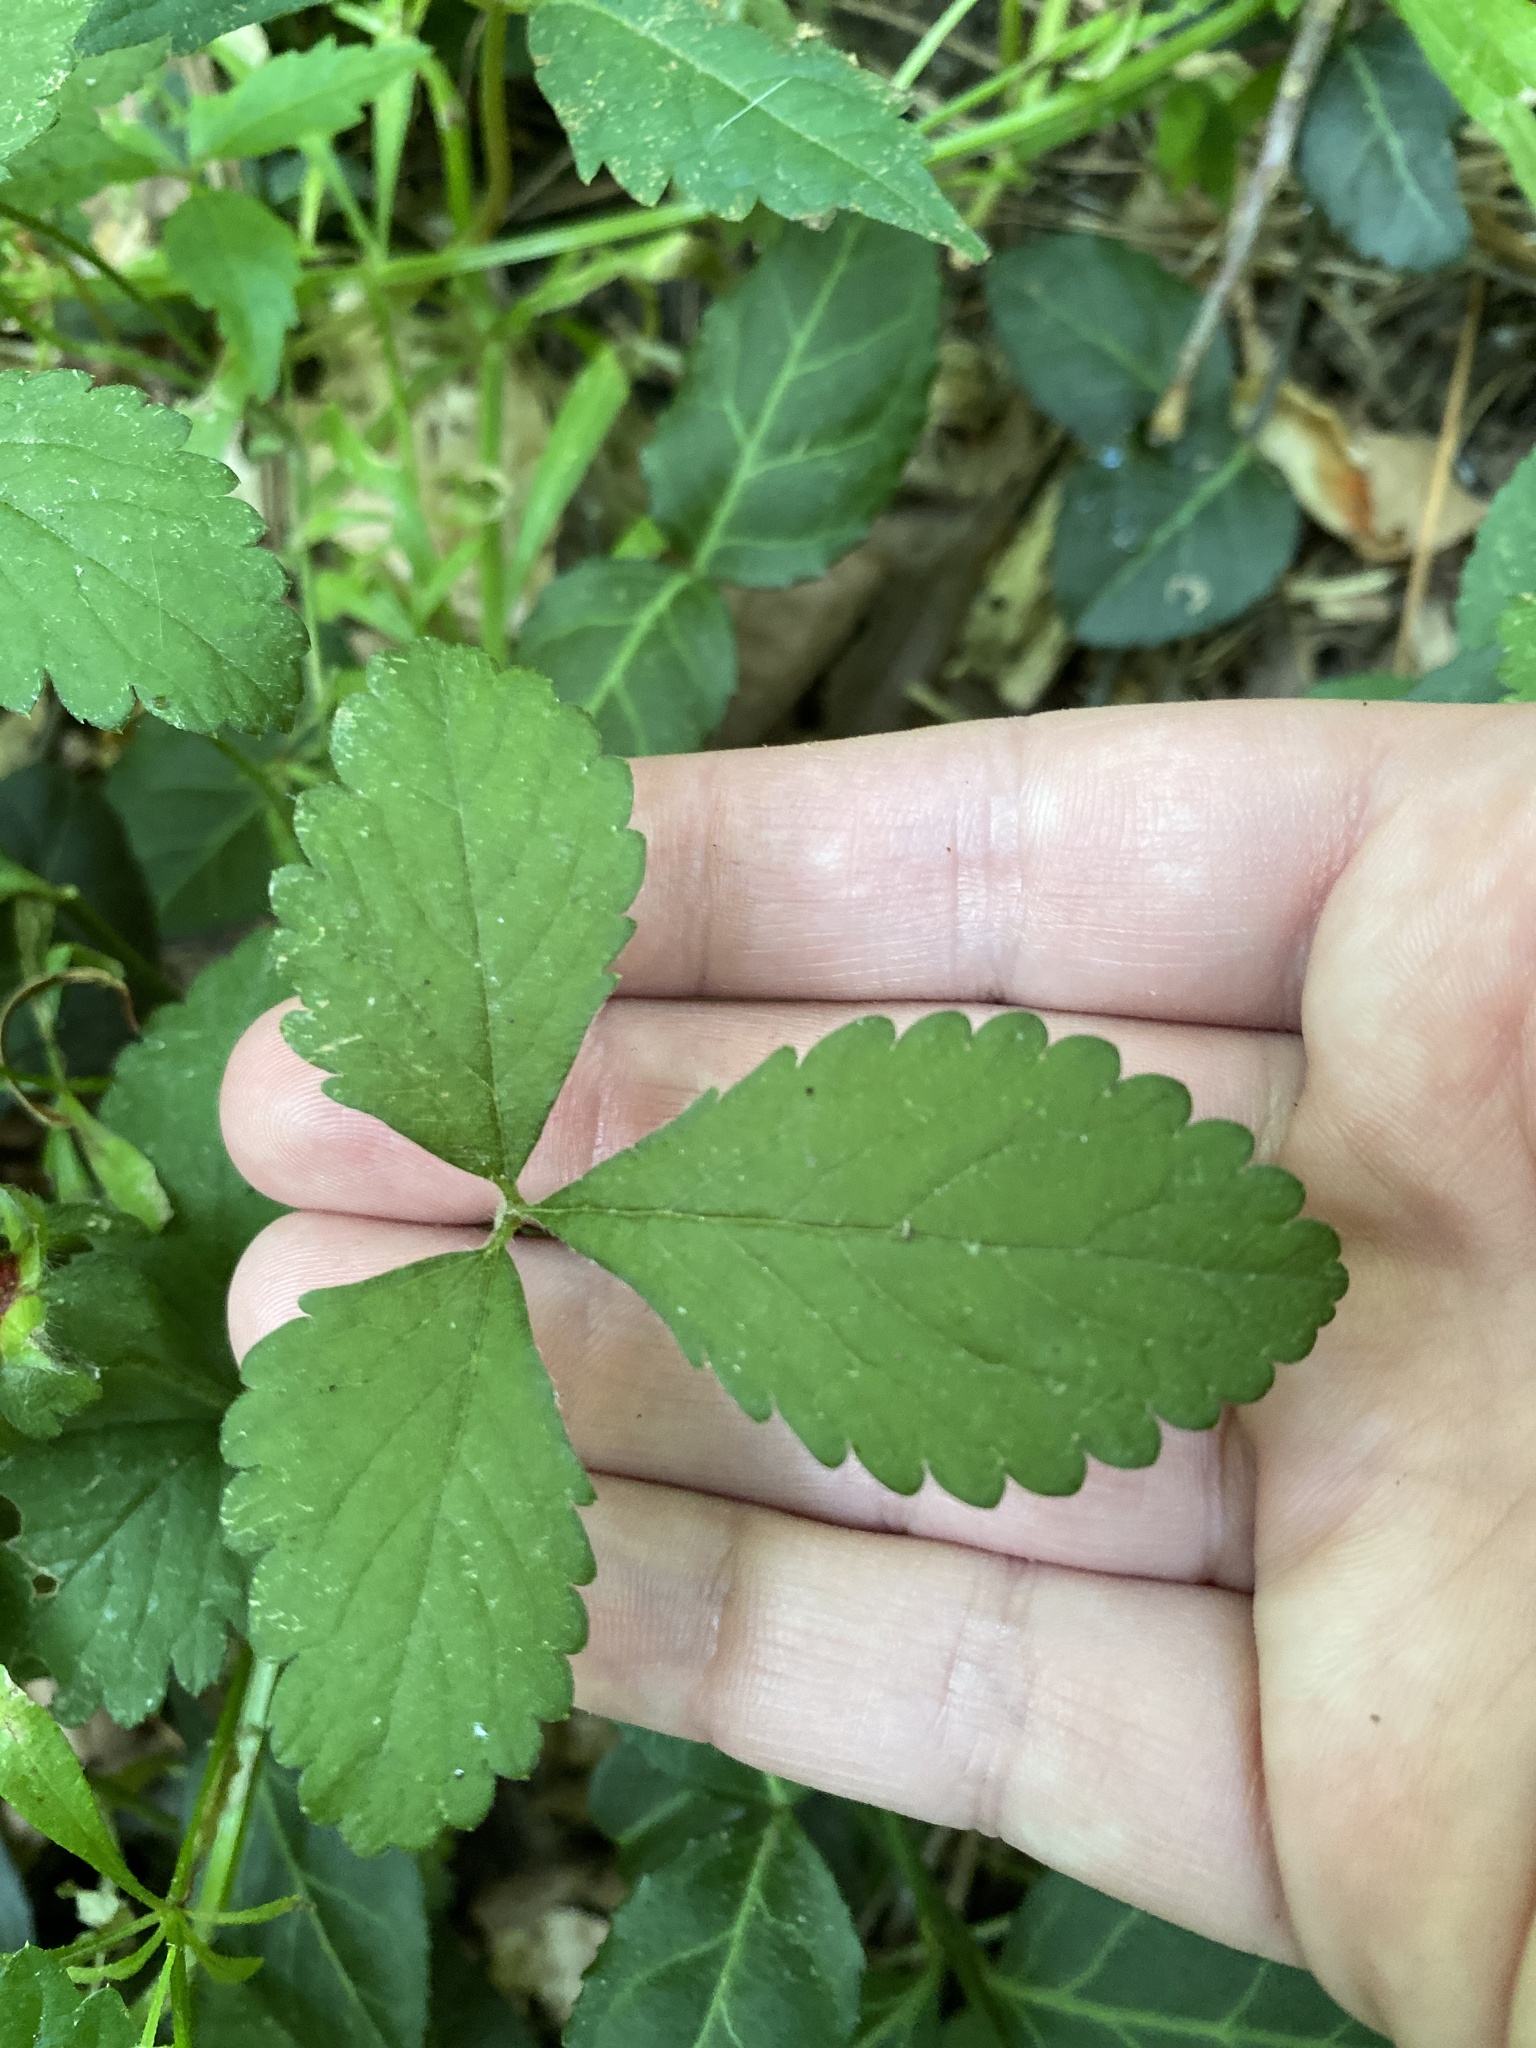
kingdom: Plantae
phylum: Tracheophyta
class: Magnoliopsida
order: Rosales
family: Rosaceae
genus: Potentilla
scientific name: Potentilla indica
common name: Yellow-flowered strawberry
